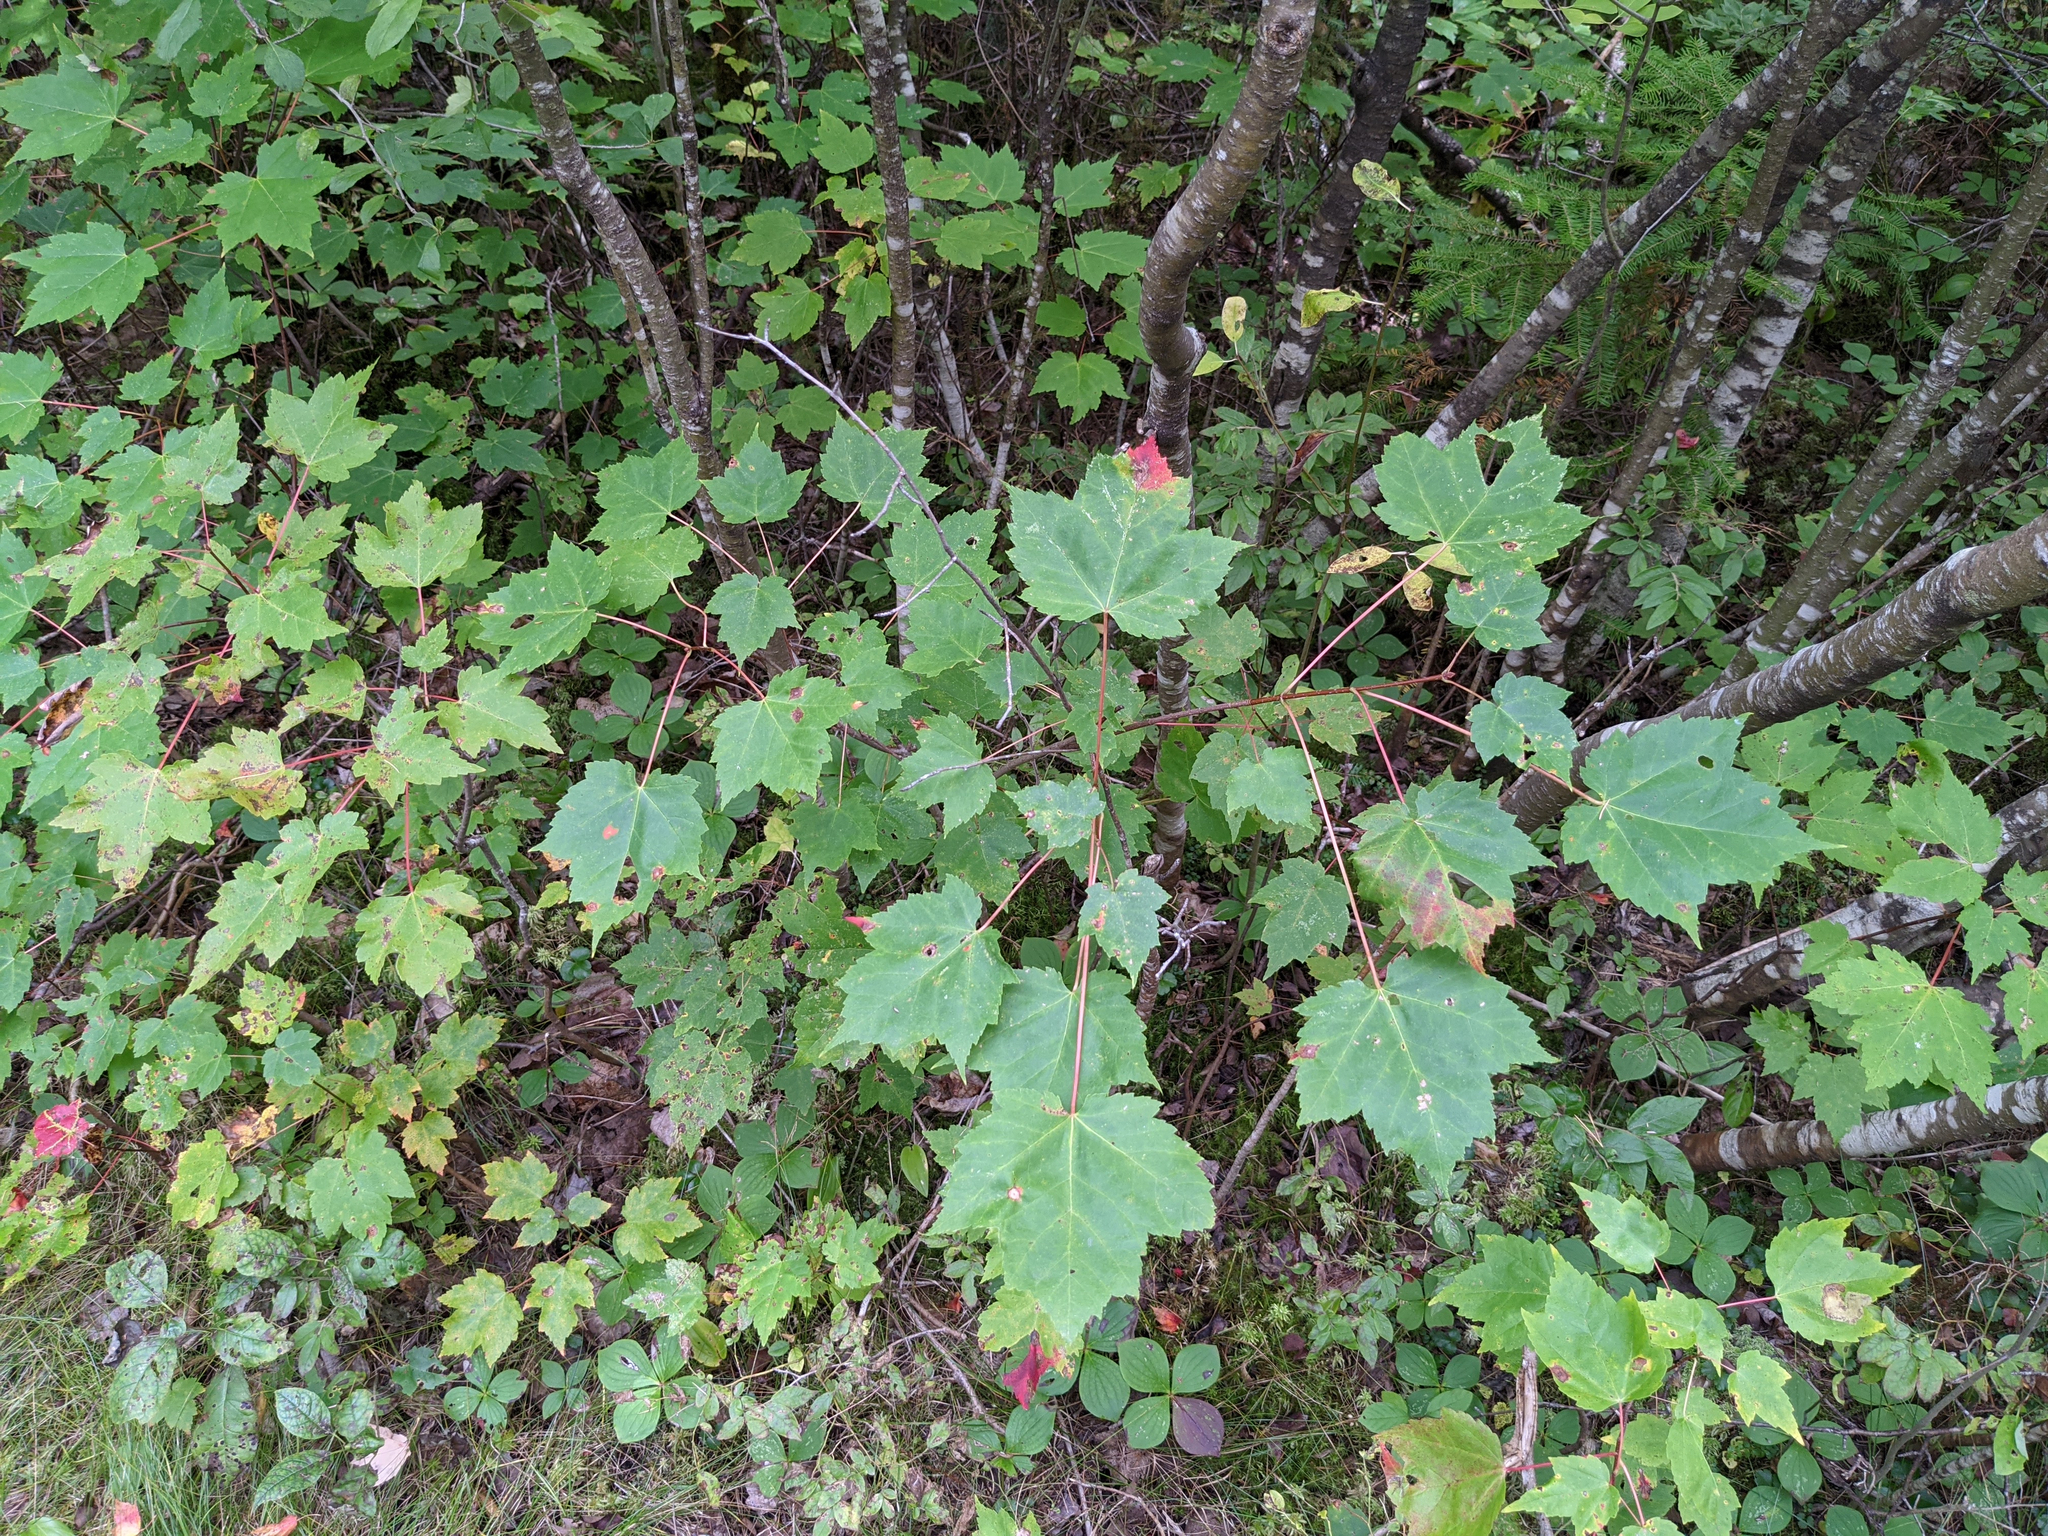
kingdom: Plantae
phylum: Tracheophyta
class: Magnoliopsida
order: Sapindales
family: Sapindaceae
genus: Acer
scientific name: Acer rubrum
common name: Red maple
